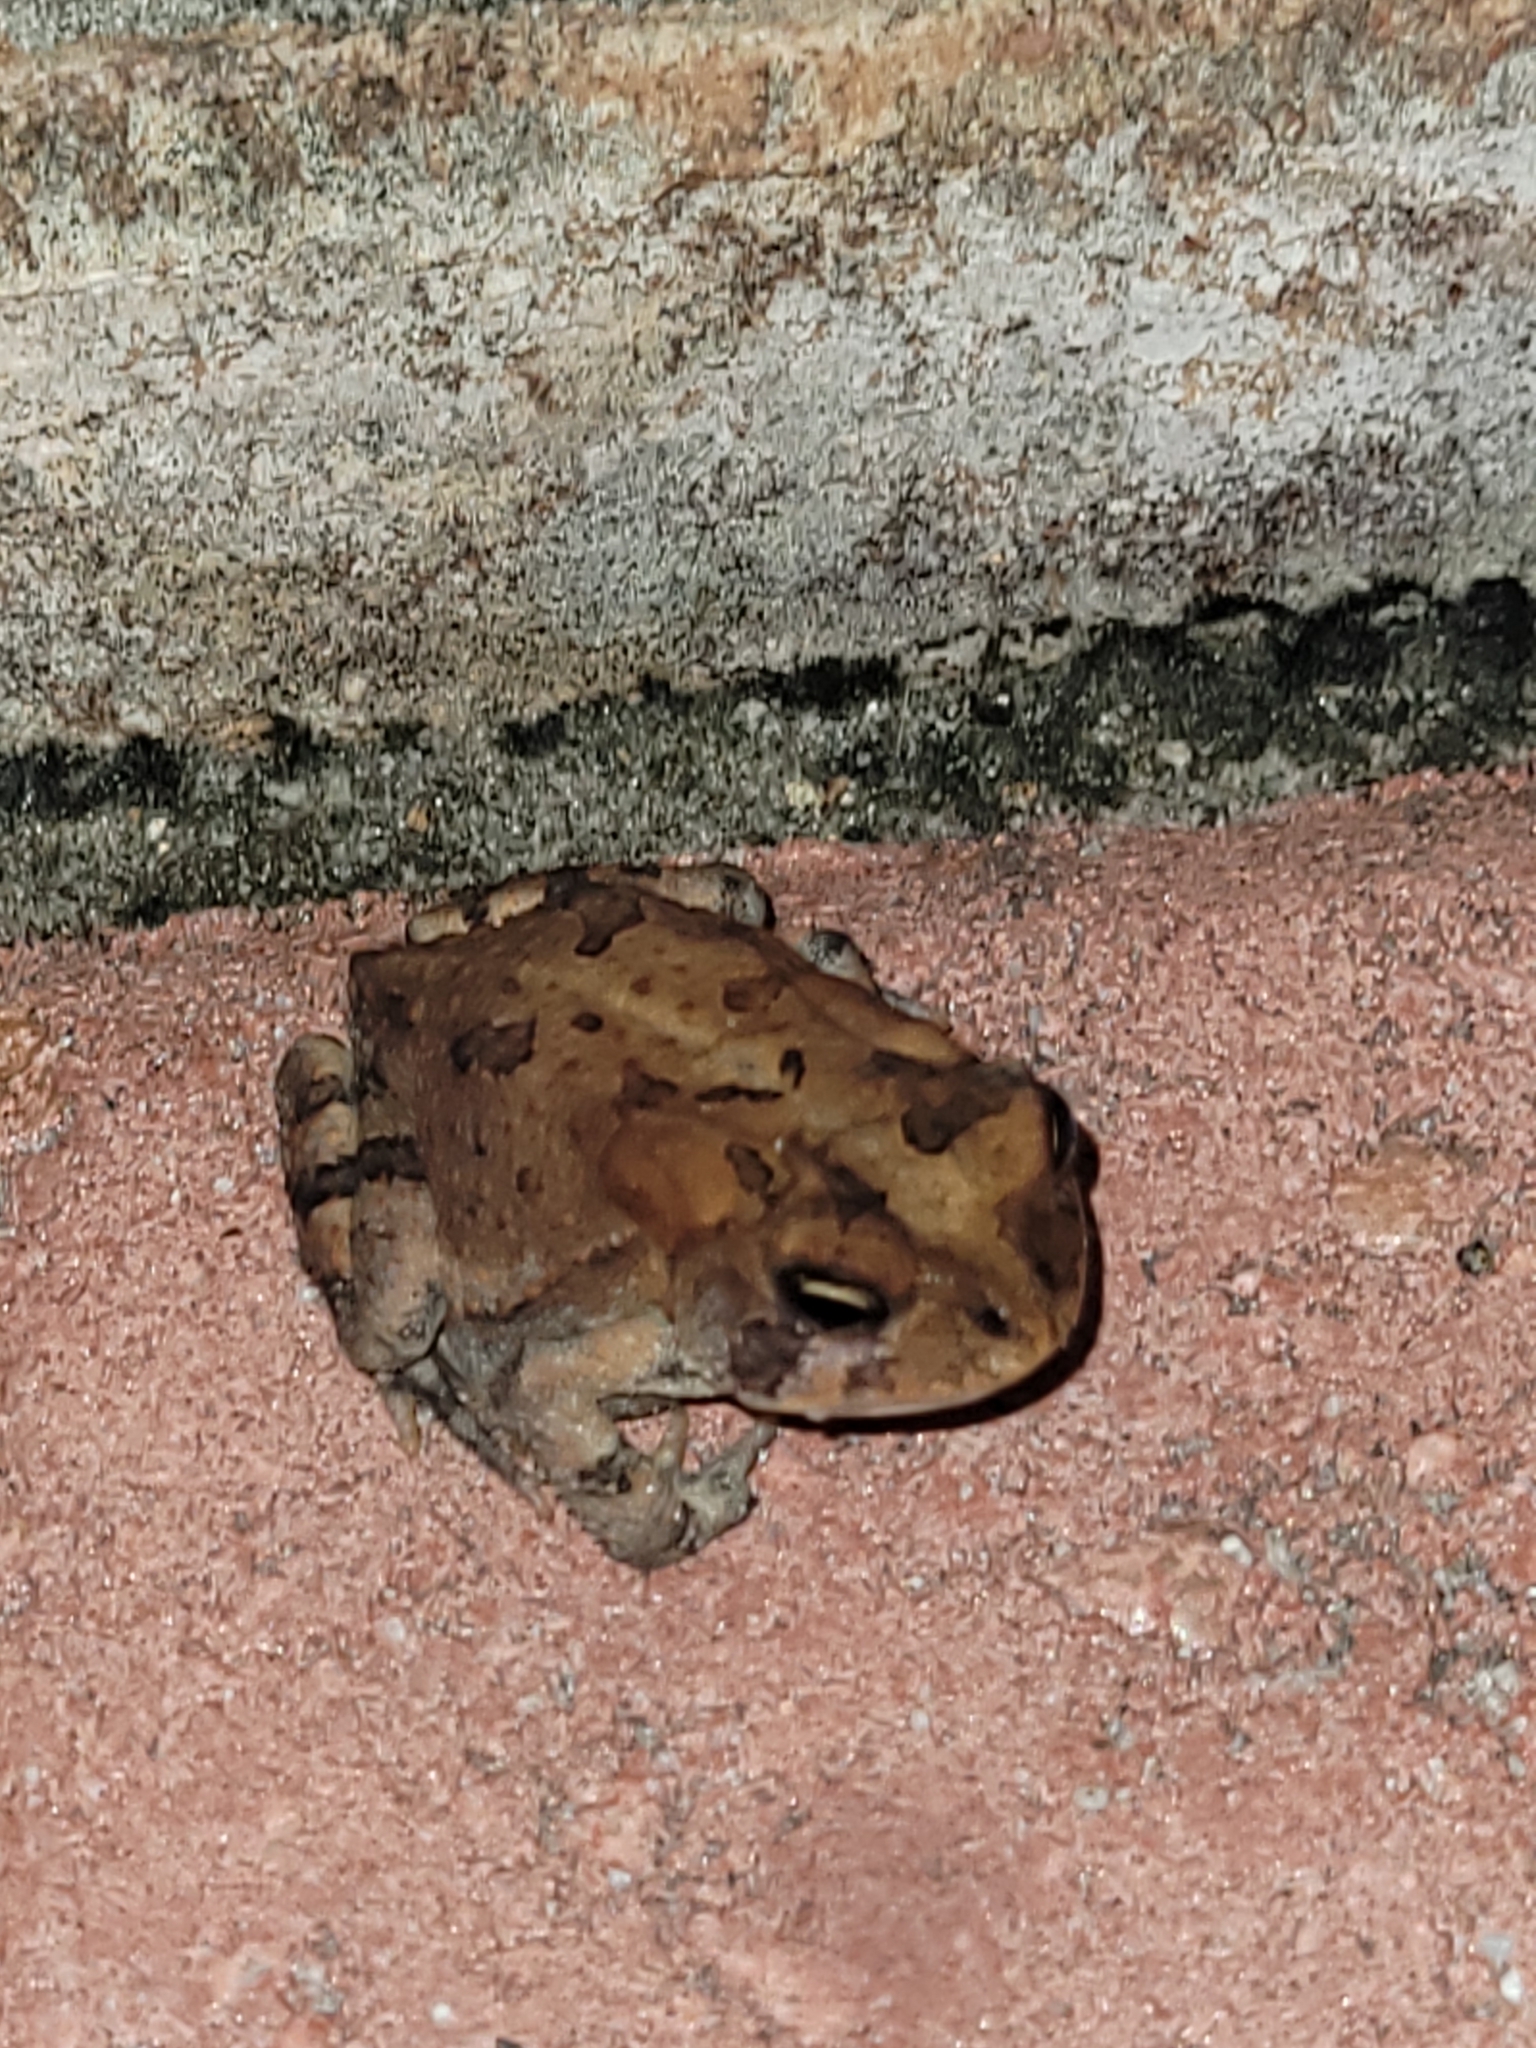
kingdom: Animalia
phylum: Chordata
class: Amphibia
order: Anura
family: Bufonidae
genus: Anaxyrus
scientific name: Anaxyrus terrestris
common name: Southern toad
